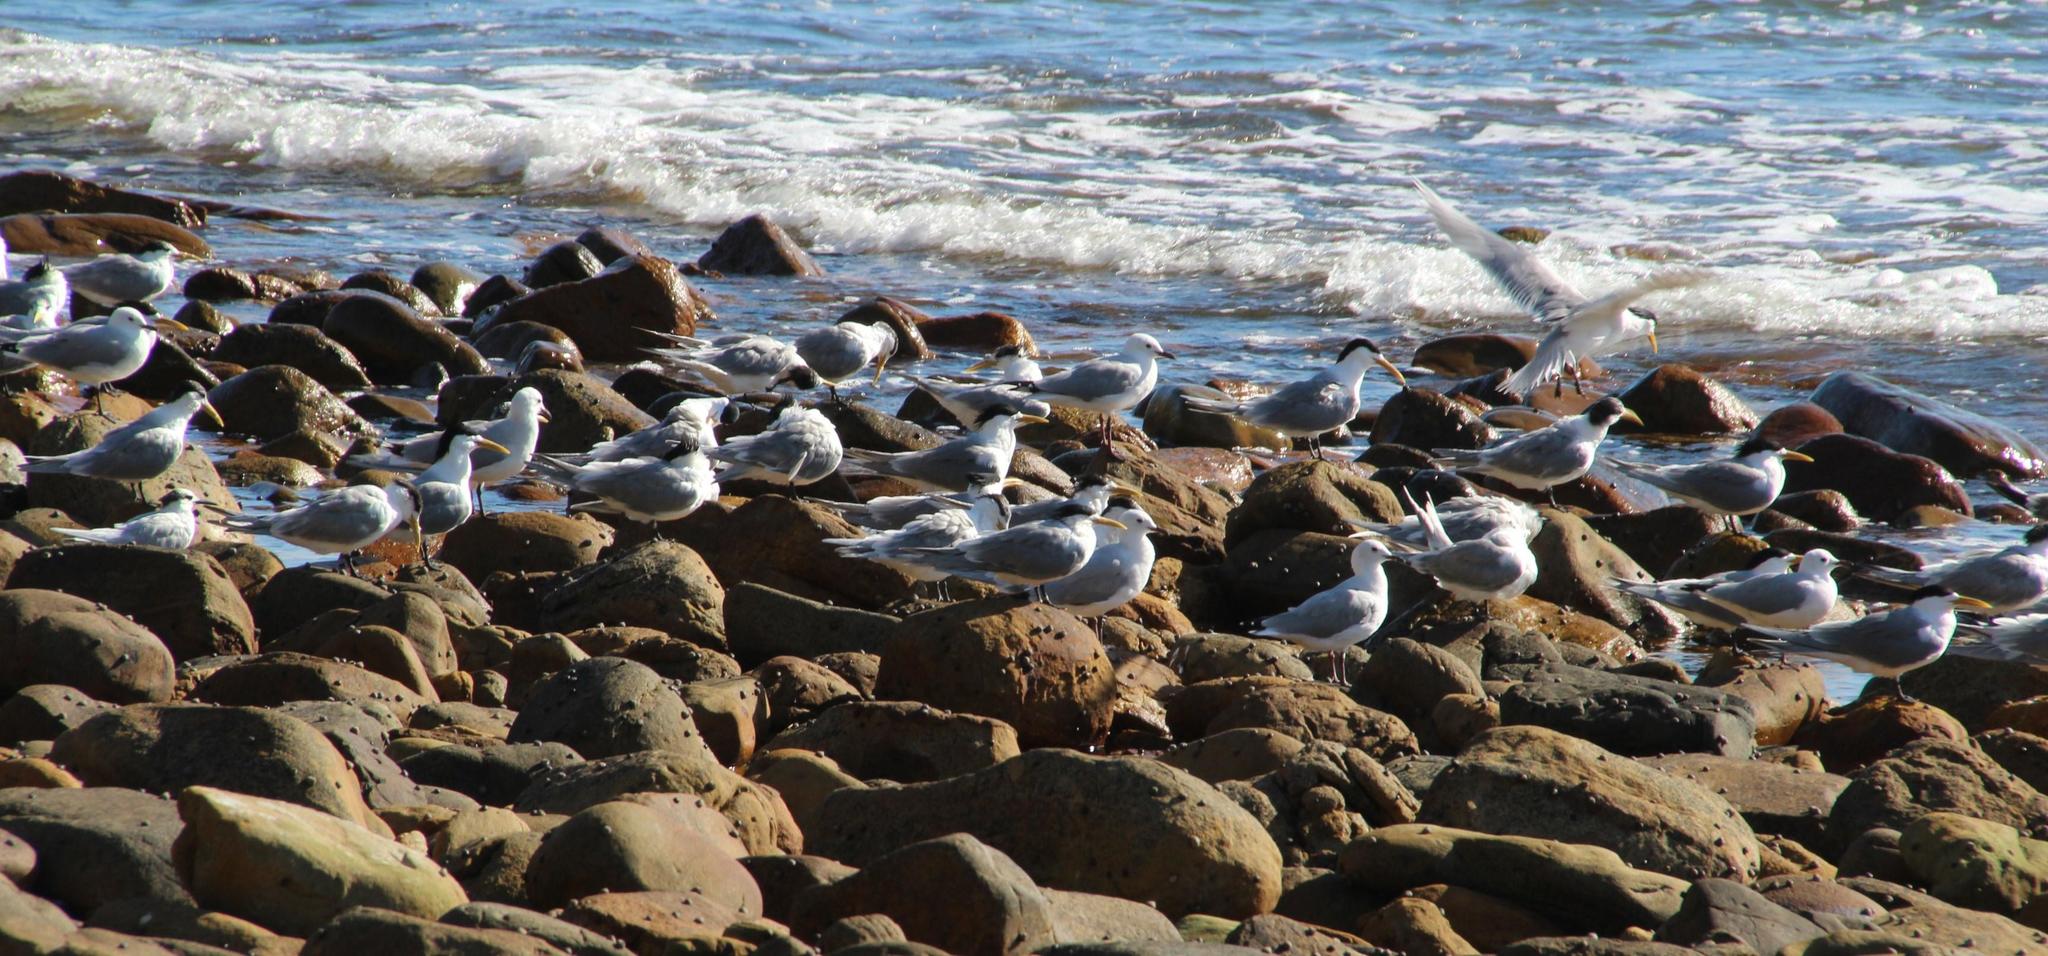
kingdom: Animalia
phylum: Chordata
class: Aves
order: Charadriiformes
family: Laridae
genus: Thalasseus
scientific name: Thalasseus bergii
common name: Greater crested tern
